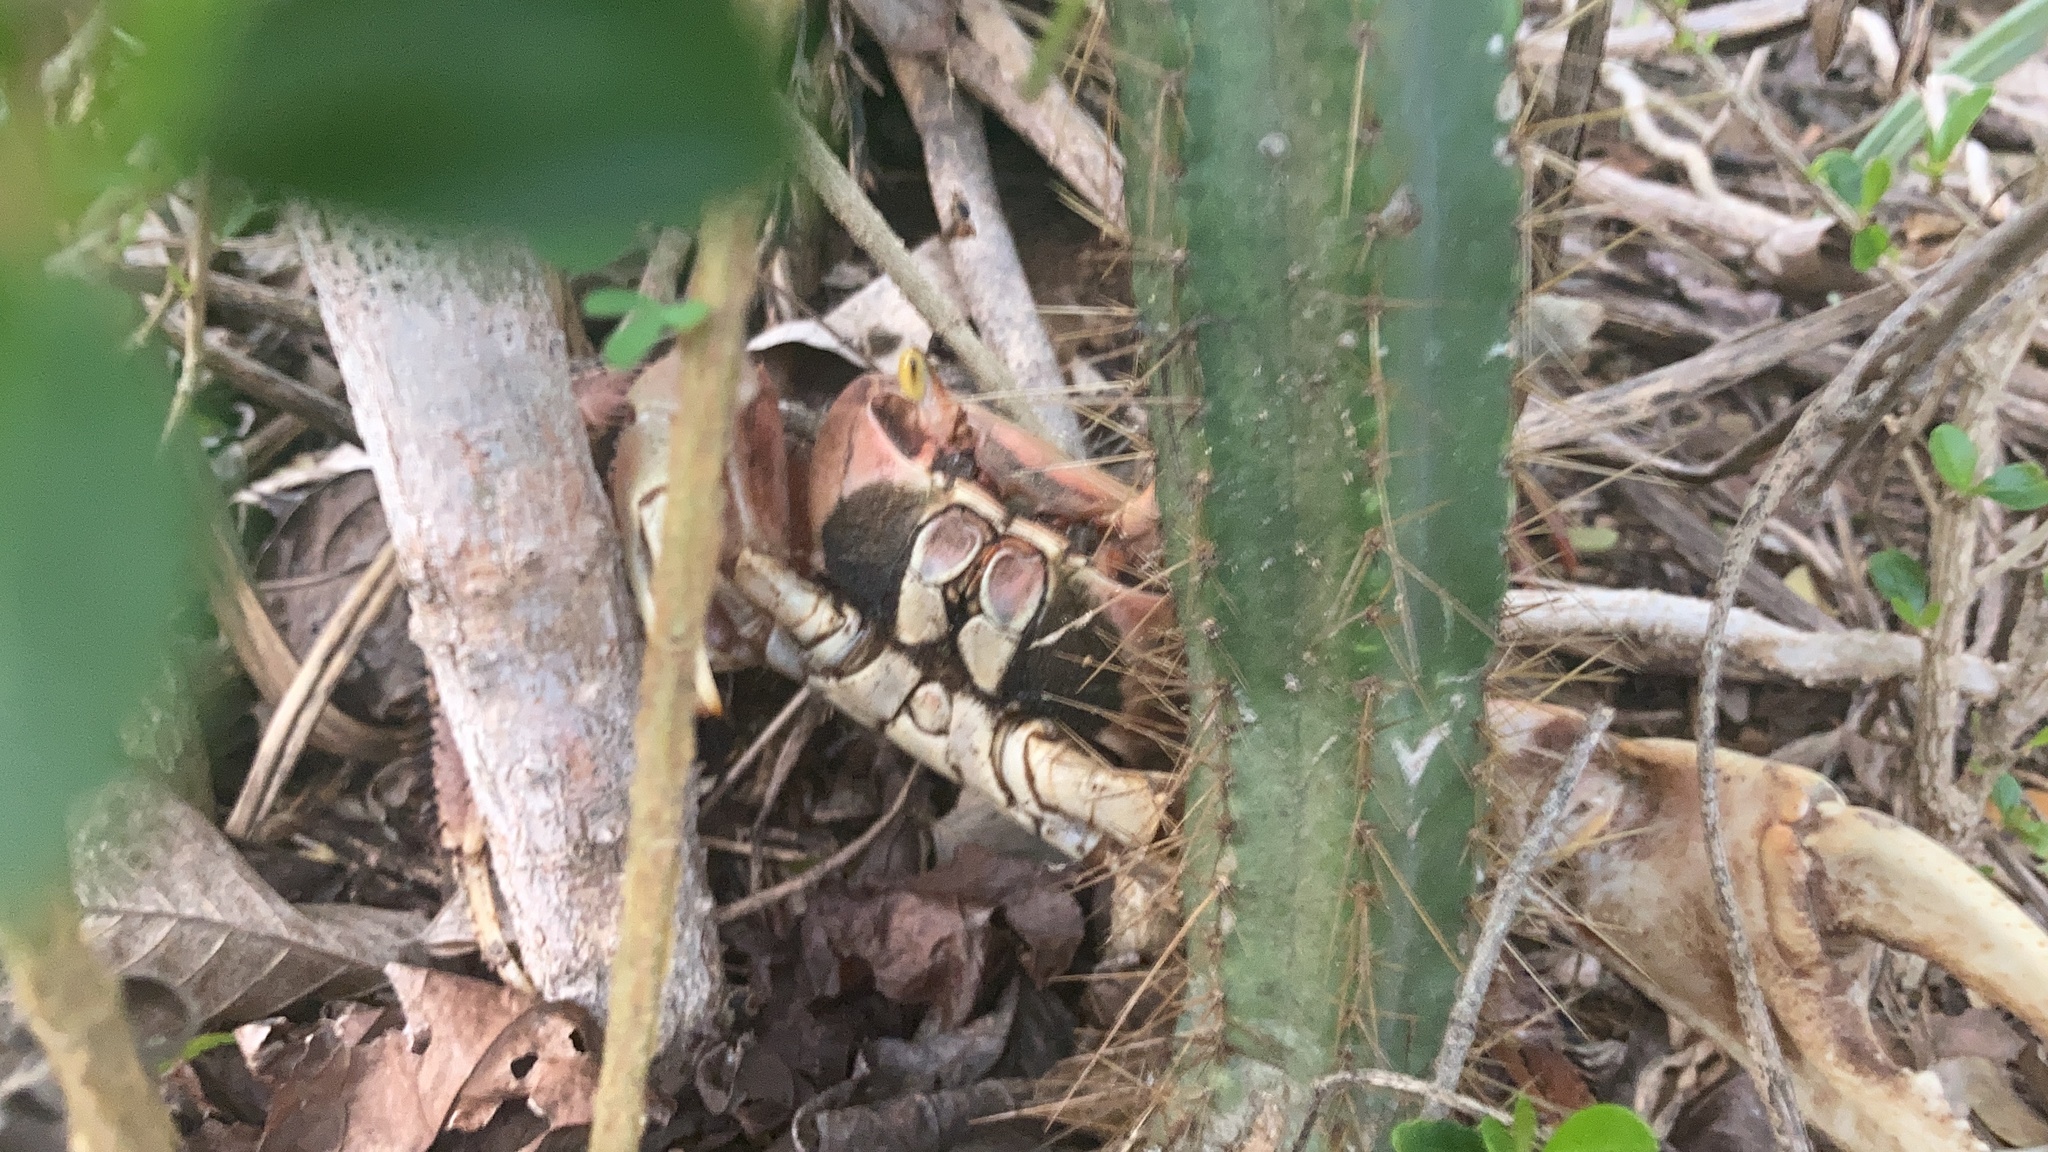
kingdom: Animalia
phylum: Arthropoda
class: Malacostraca
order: Decapoda
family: Gecarcinidae
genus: Cardisoma
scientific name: Cardisoma guanhumi
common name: Great land crab
